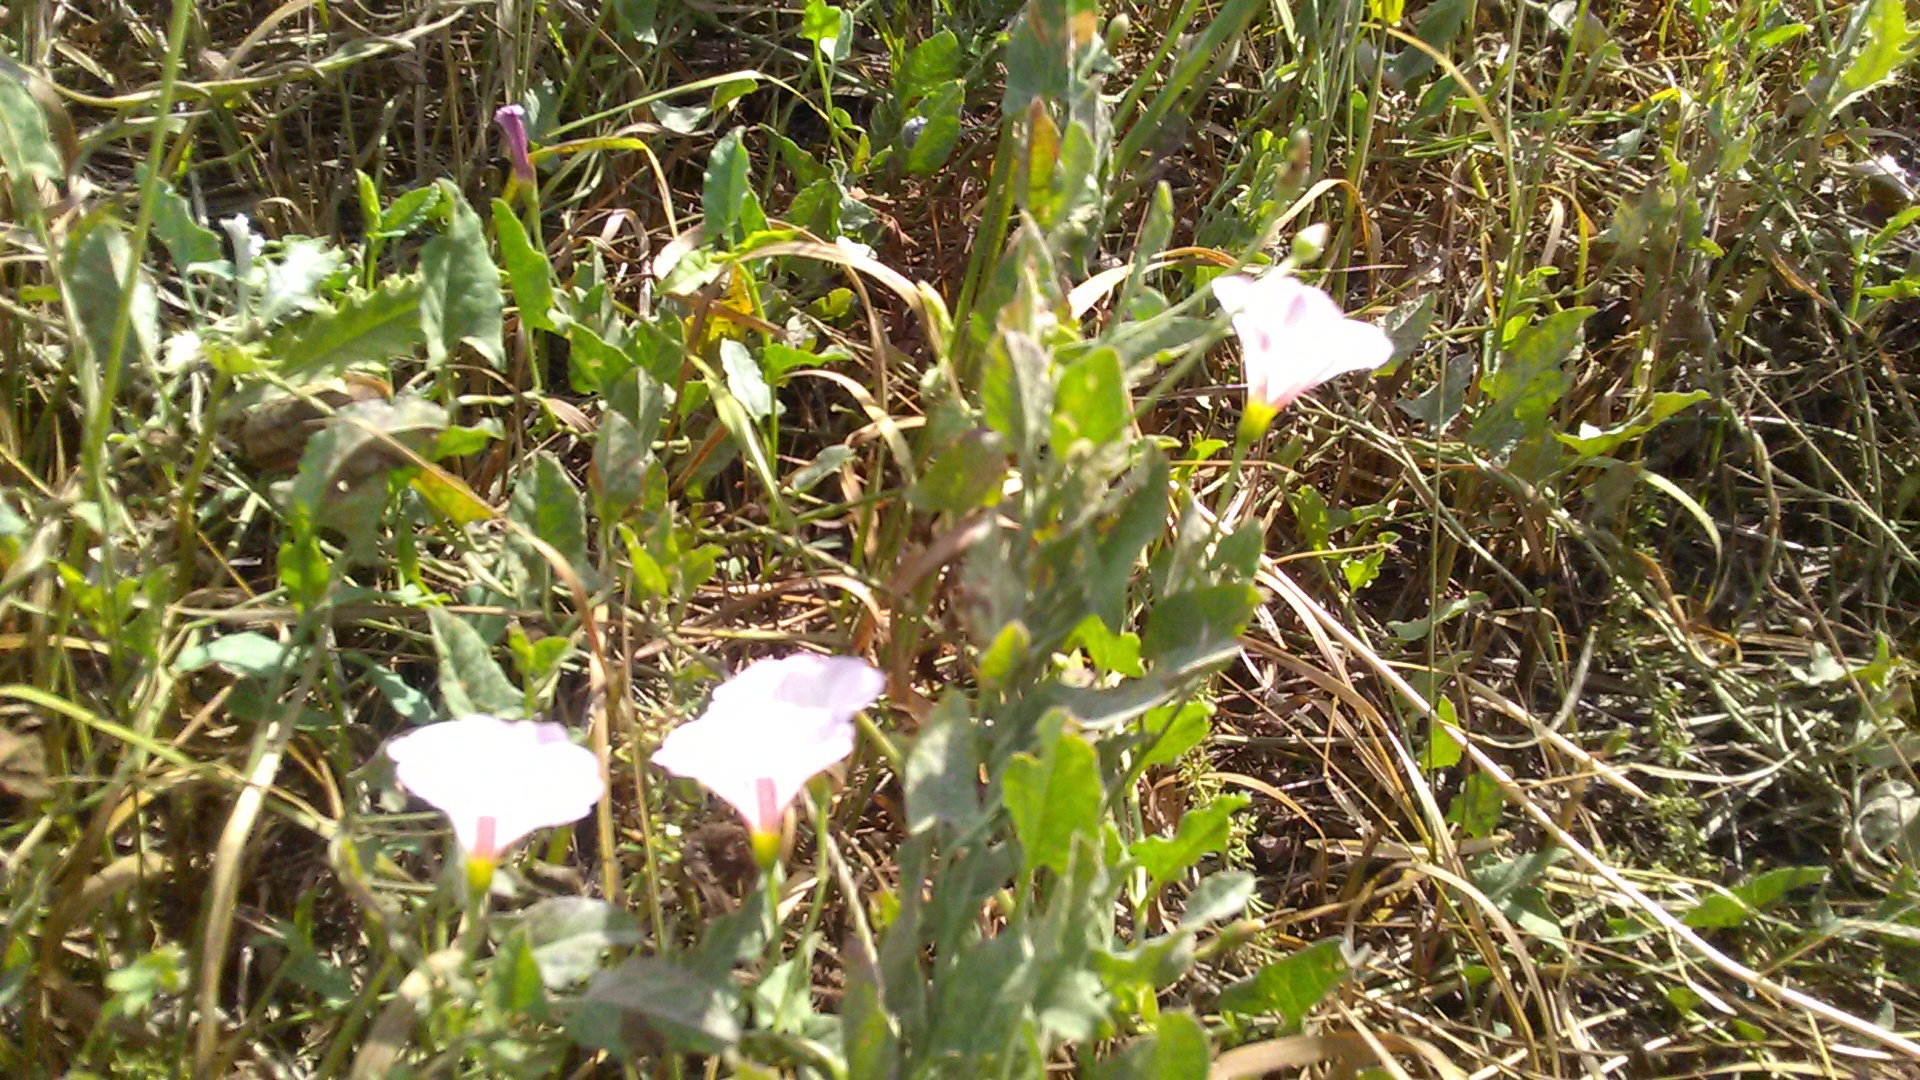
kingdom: Plantae
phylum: Tracheophyta
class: Magnoliopsida
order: Solanales
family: Convolvulaceae
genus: Convolvulus
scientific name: Convolvulus arvensis
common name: Field bindweed
